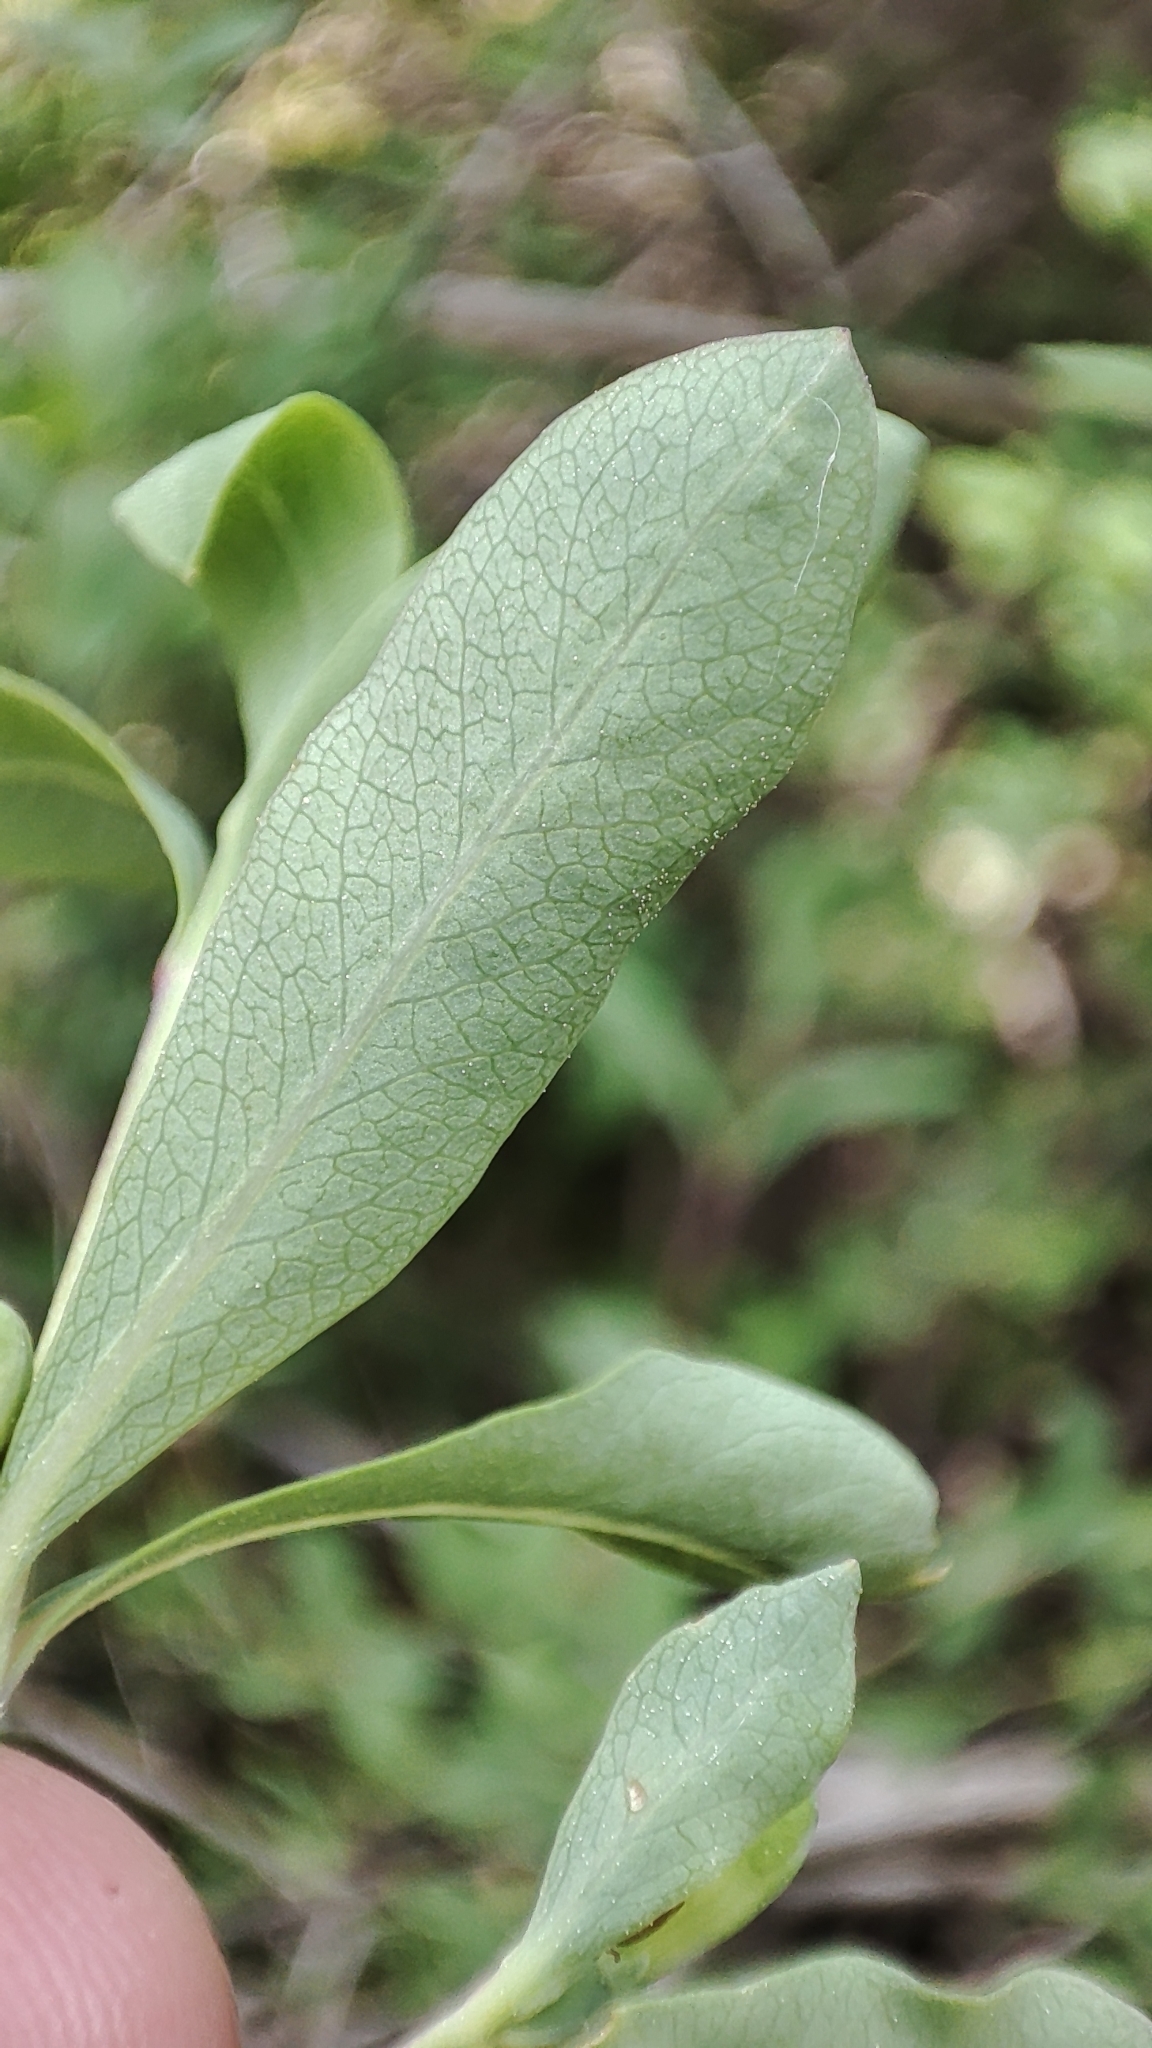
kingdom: Plantae
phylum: Tracheophyta
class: Magnoliopsida
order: Dipsacales
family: Caprifoliaceae
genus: Lonicera
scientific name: Lonicera pyrenaica
